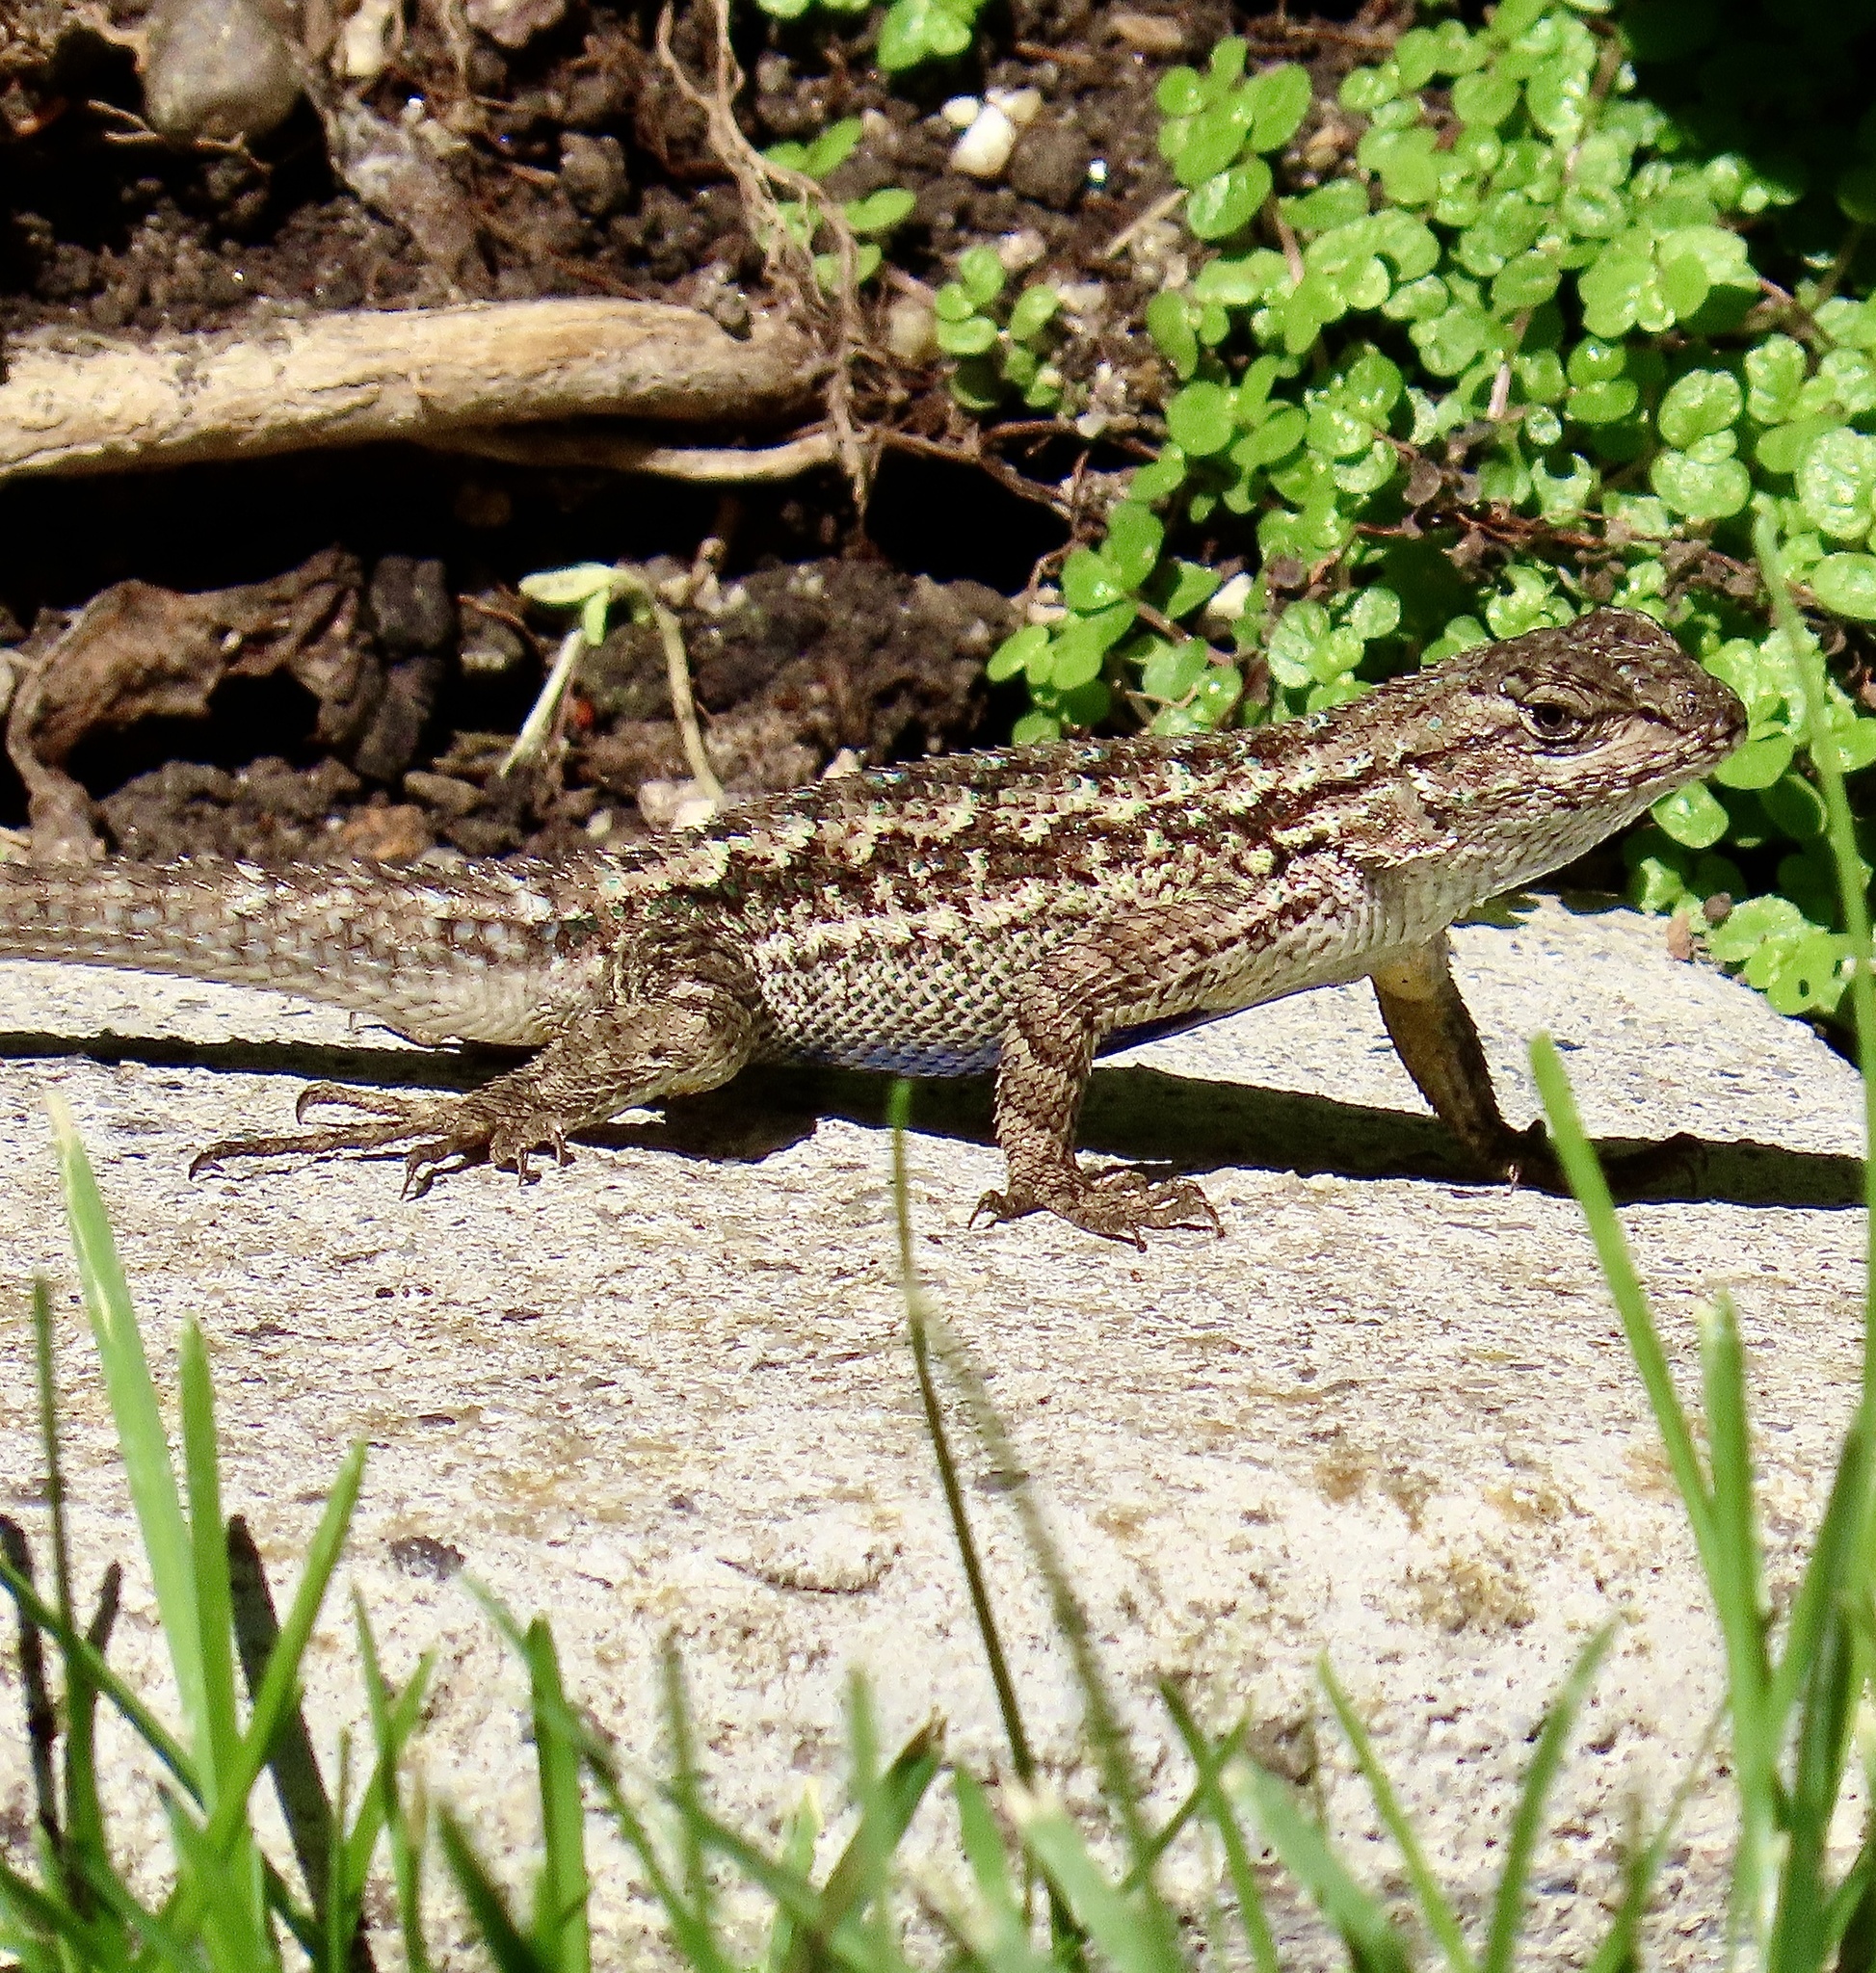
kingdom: Animalia
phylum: Chordata
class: Squamata
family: Phrynosomatidae
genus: Sceloporus
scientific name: Sceloporus occidentalis
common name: Western fence lizard
